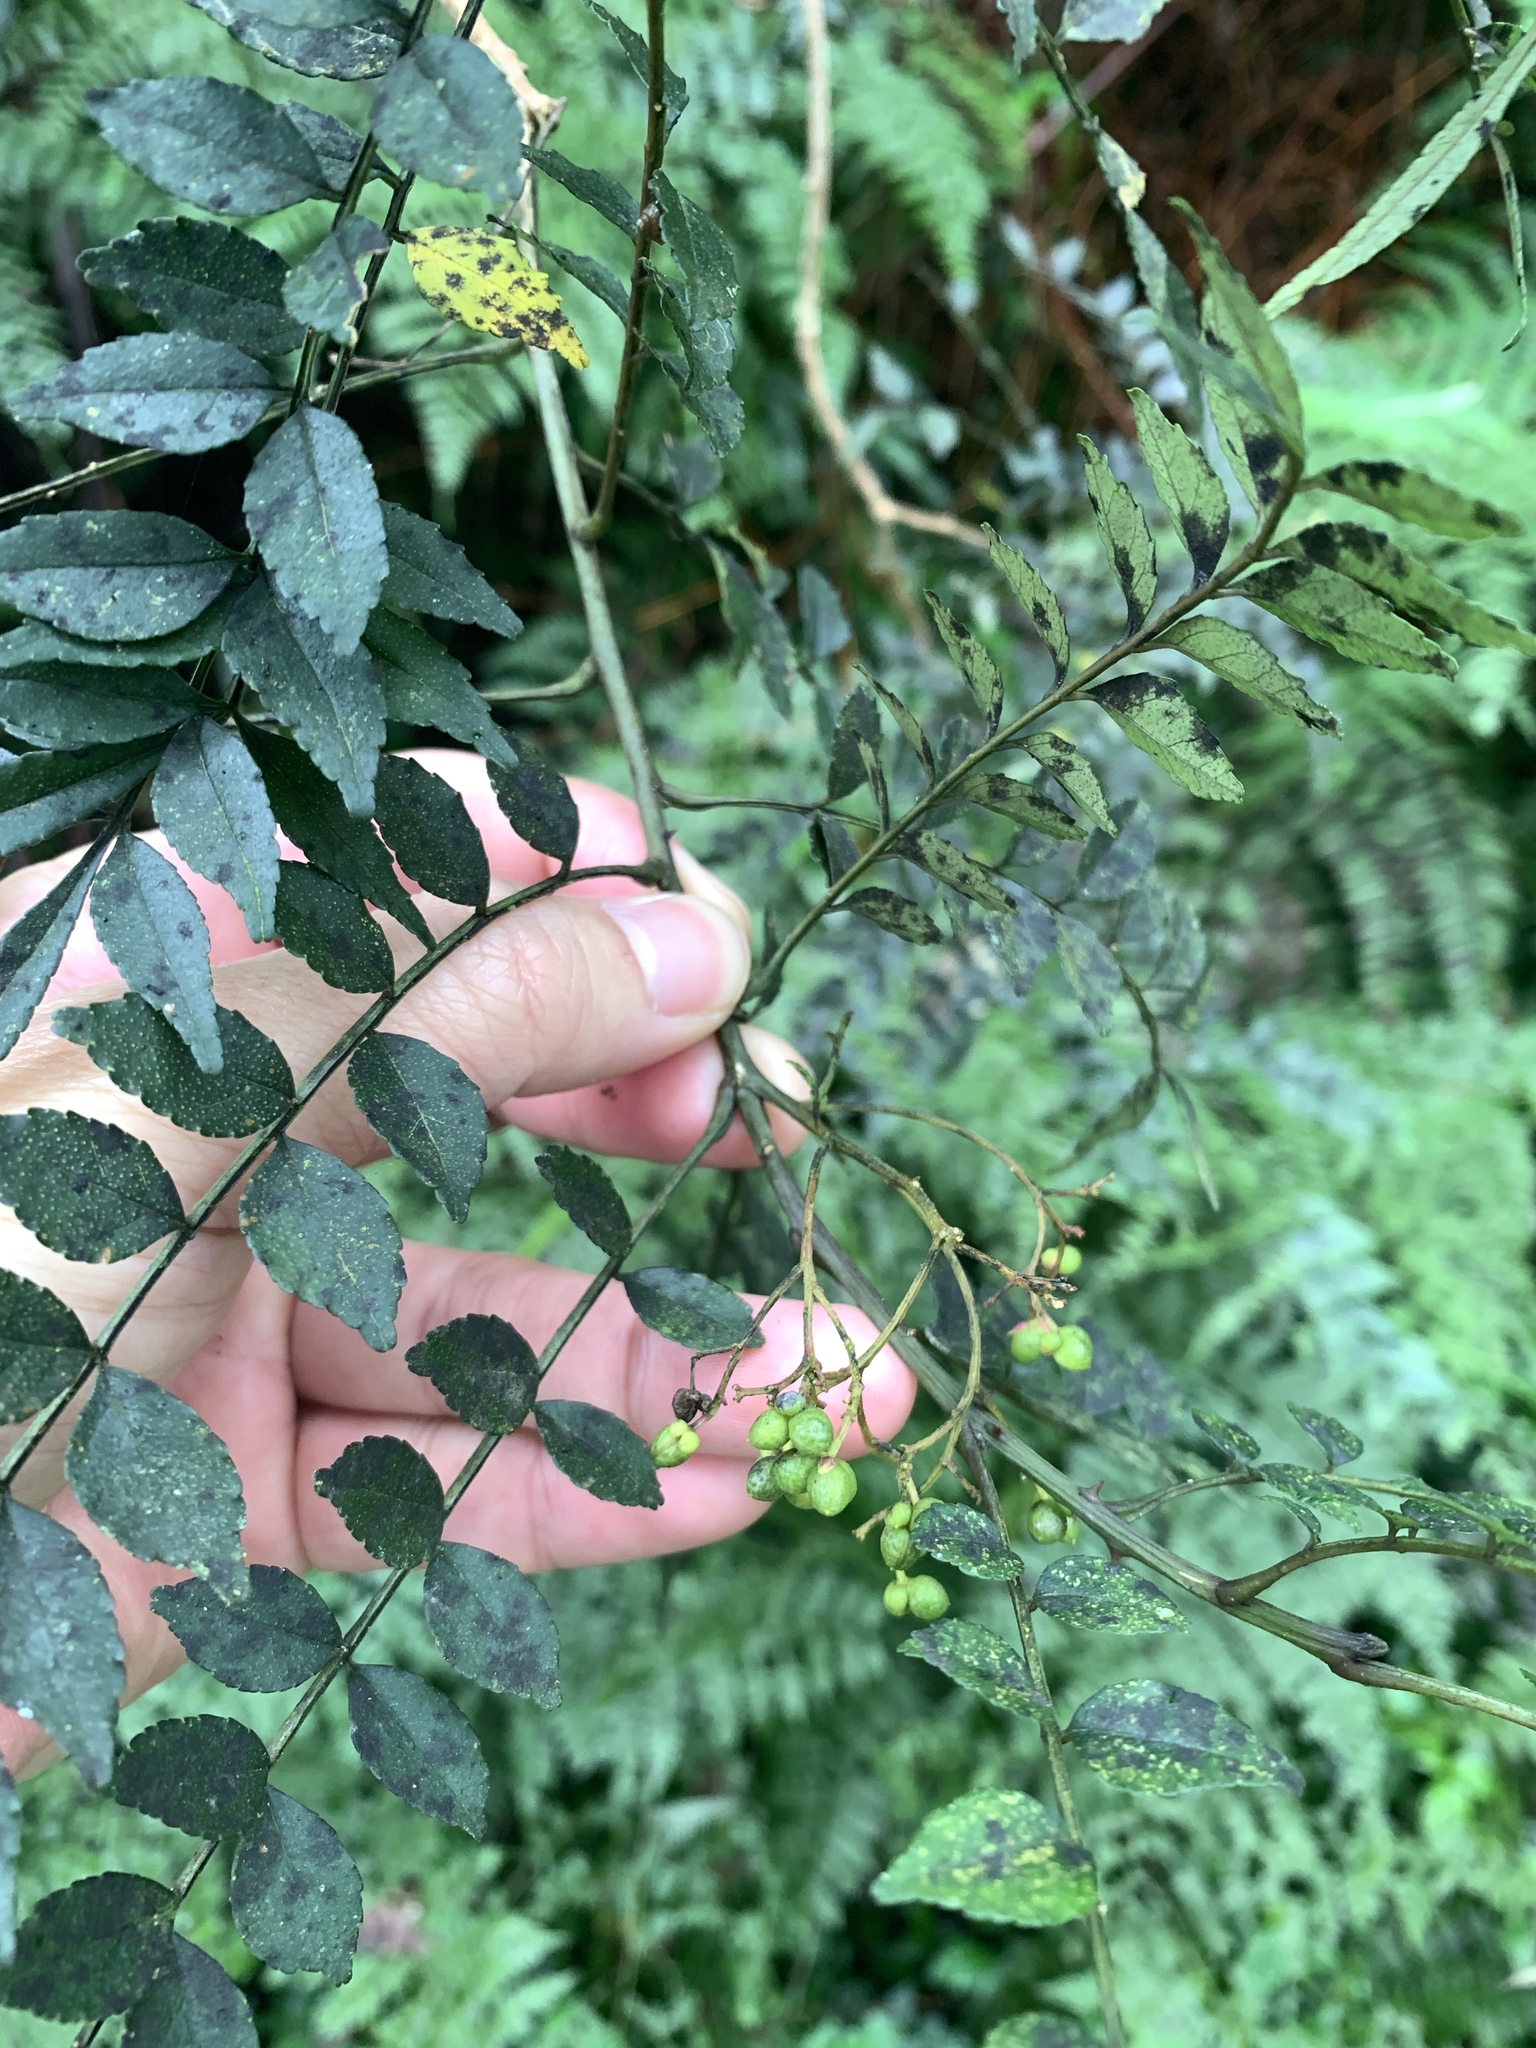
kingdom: Plantae
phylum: Tracheophyta
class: Magnoliopsida
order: Sapindales
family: Rutaceae
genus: Zanthoxylum
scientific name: Zanthoxylum schinifolium
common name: Sichuan-pepper
